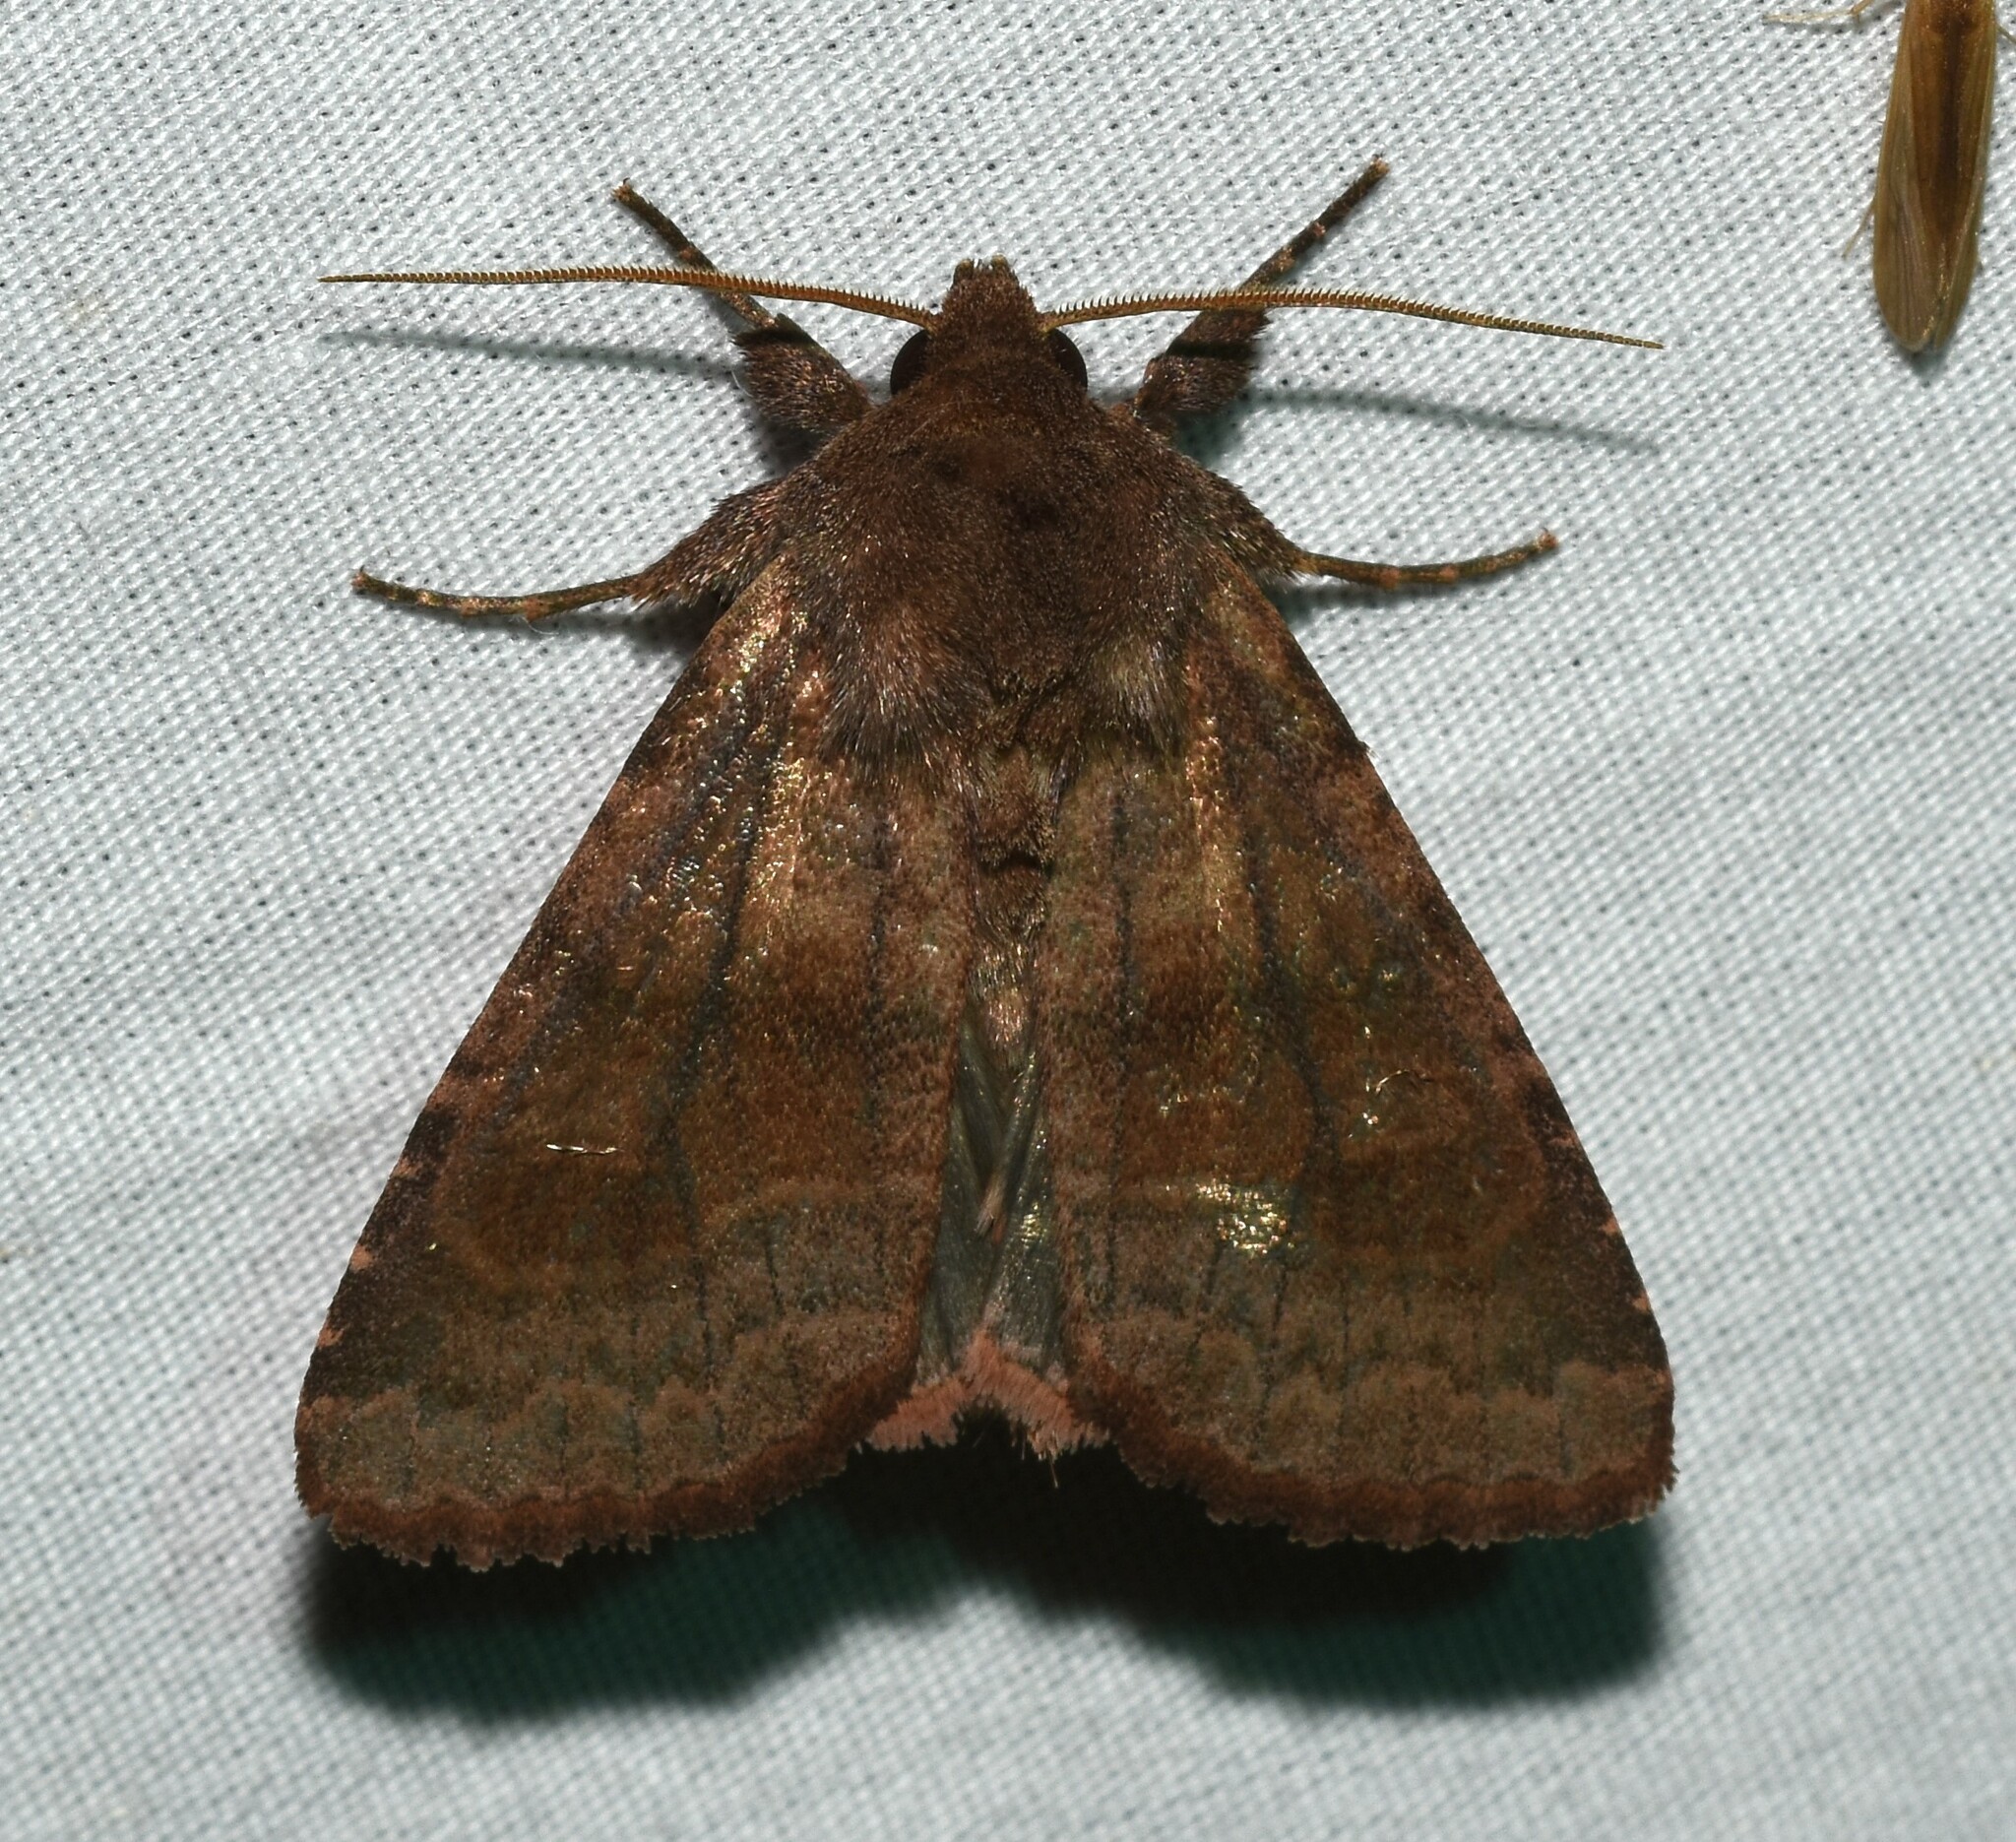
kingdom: Animalia
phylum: Arthropoda
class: Insecta
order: Lepidoptera
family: Noctuidae
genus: Nephelodes
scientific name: Nephelodes minians
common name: Bronzed cutworm
